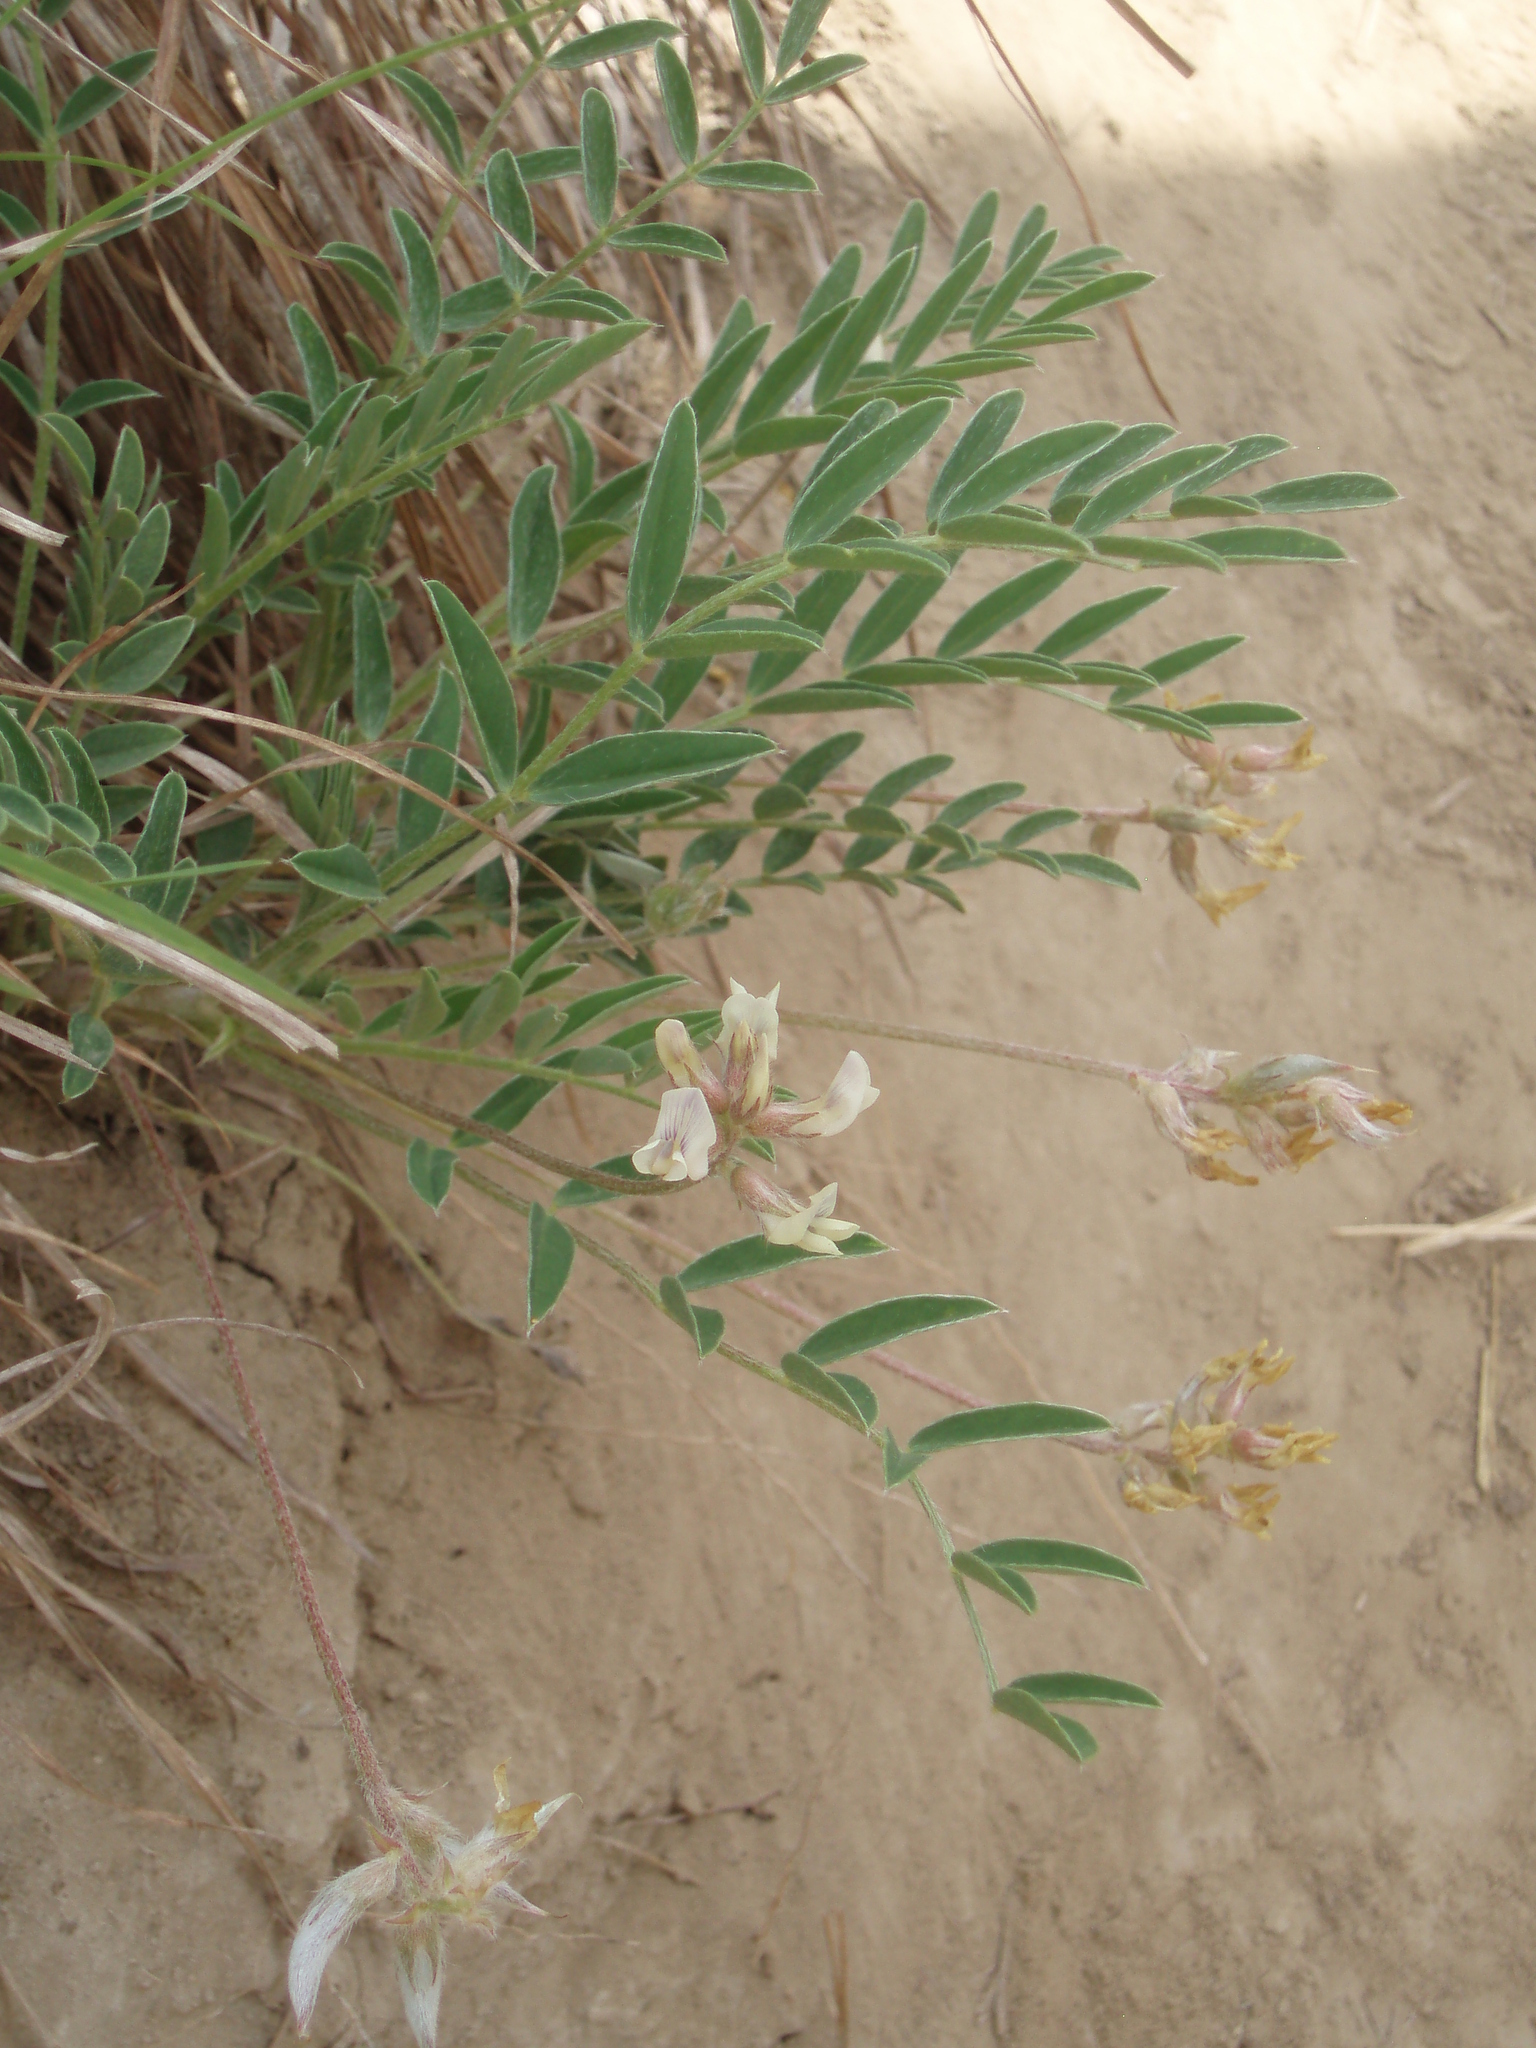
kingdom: Plantae
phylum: Tracheophyta
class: Magnoliopsida
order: Fabales
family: Fabaceae
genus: Astragalus
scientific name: Astragalus lotiflorus
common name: Lotus milk-vetch
